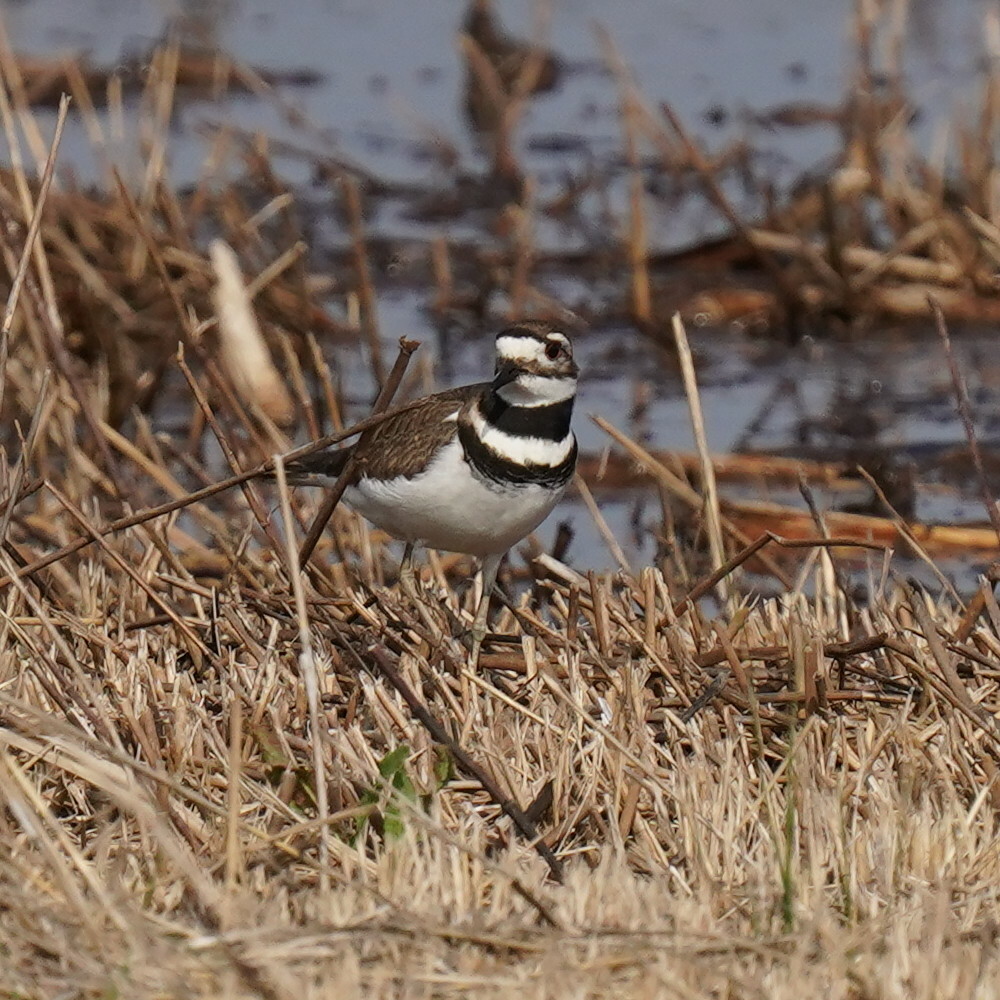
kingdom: Animalia
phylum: Chordata
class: Aves
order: Charadriiformes
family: Charadriidae
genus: Charadrius
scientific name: Charadrius vociferus
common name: Killdeer
